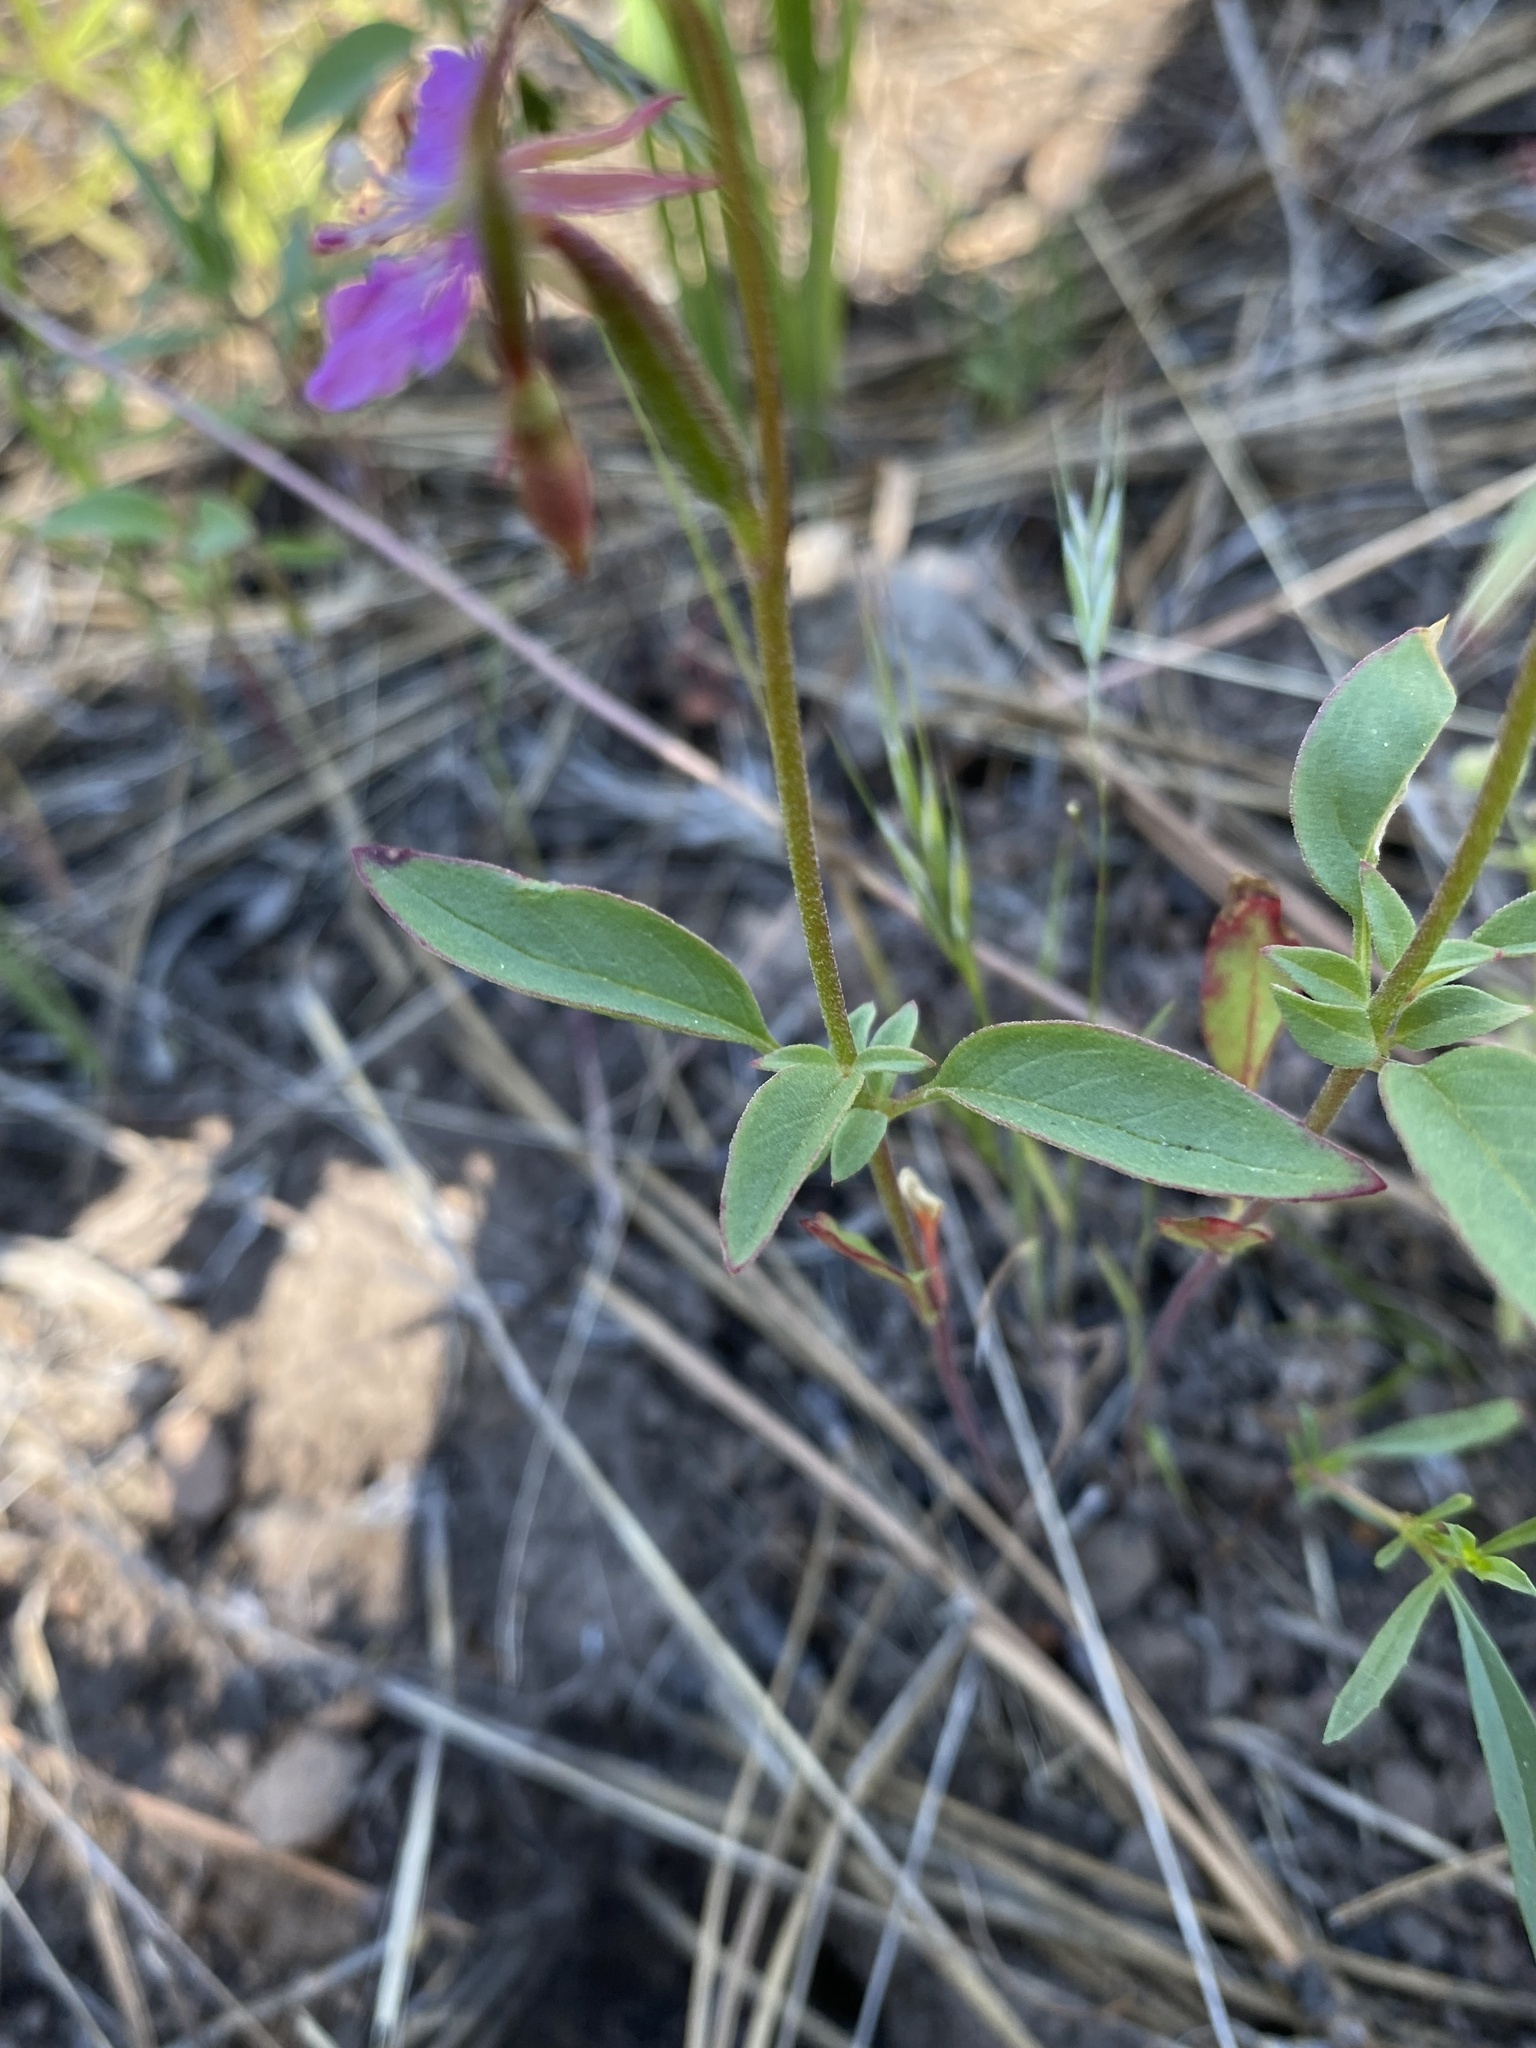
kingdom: Plantae
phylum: Tracheophyta
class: Magnoliopsida
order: Myrtales
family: Onagraceae
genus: Clarkia
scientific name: Clarkia rhomboidea
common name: Broadleaf clarkia
